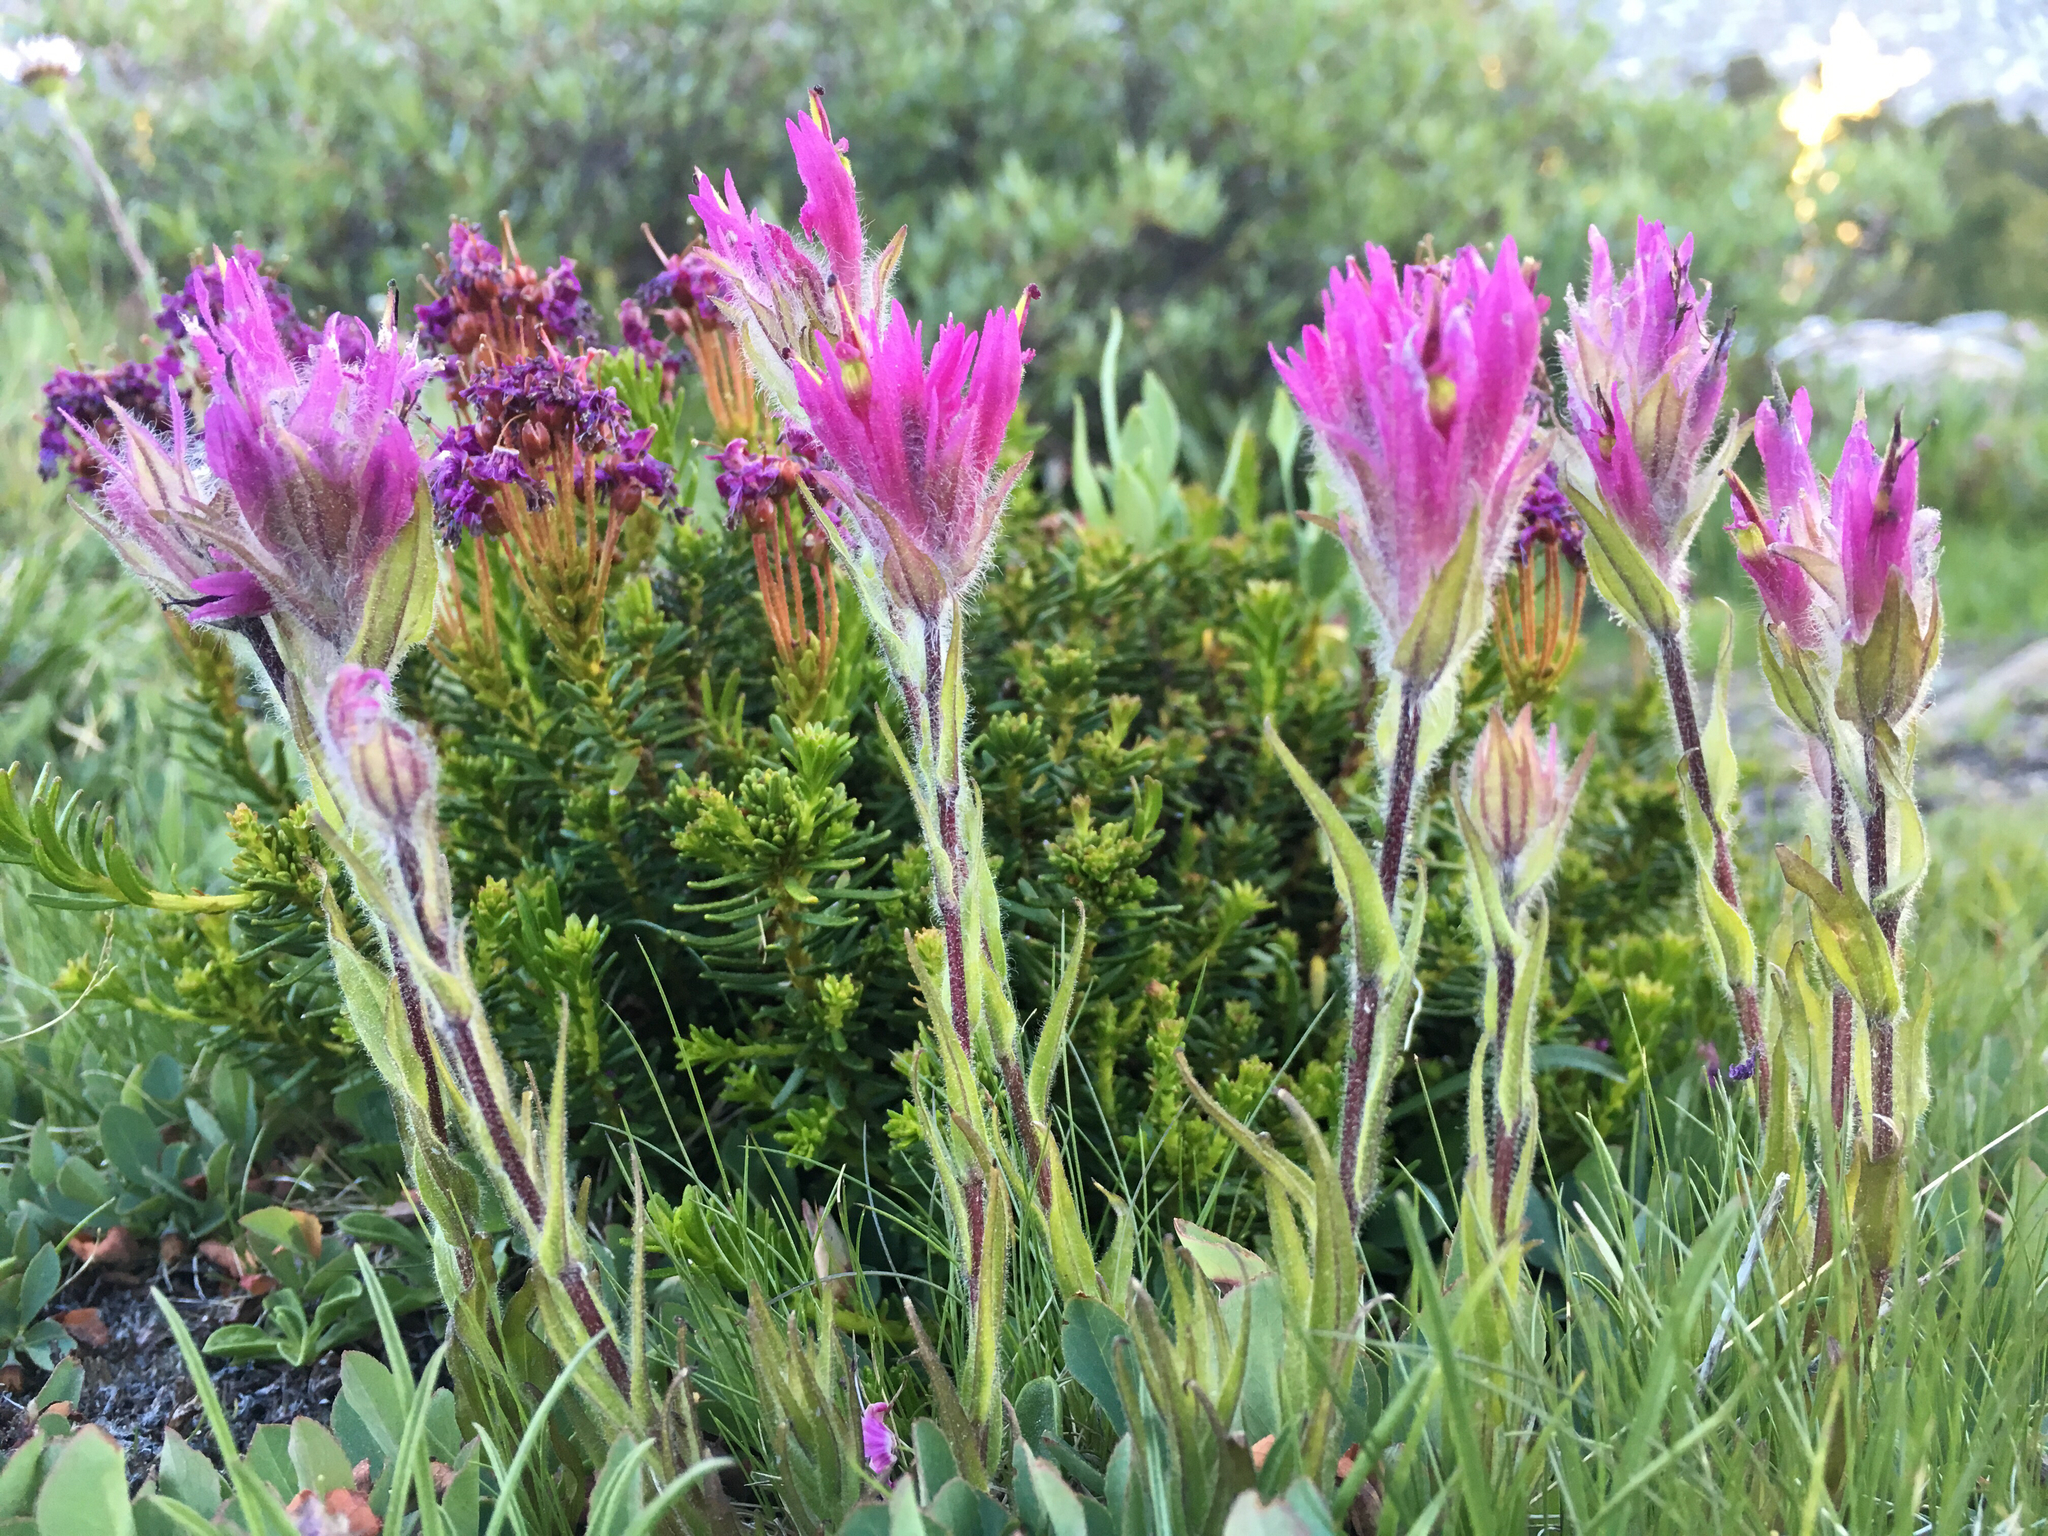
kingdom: Plantae
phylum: Tracheophyta
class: Magnoliopsida
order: Lamiales
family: Orobanchaceae
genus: Castilleja
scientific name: Castilleja lemmonii
